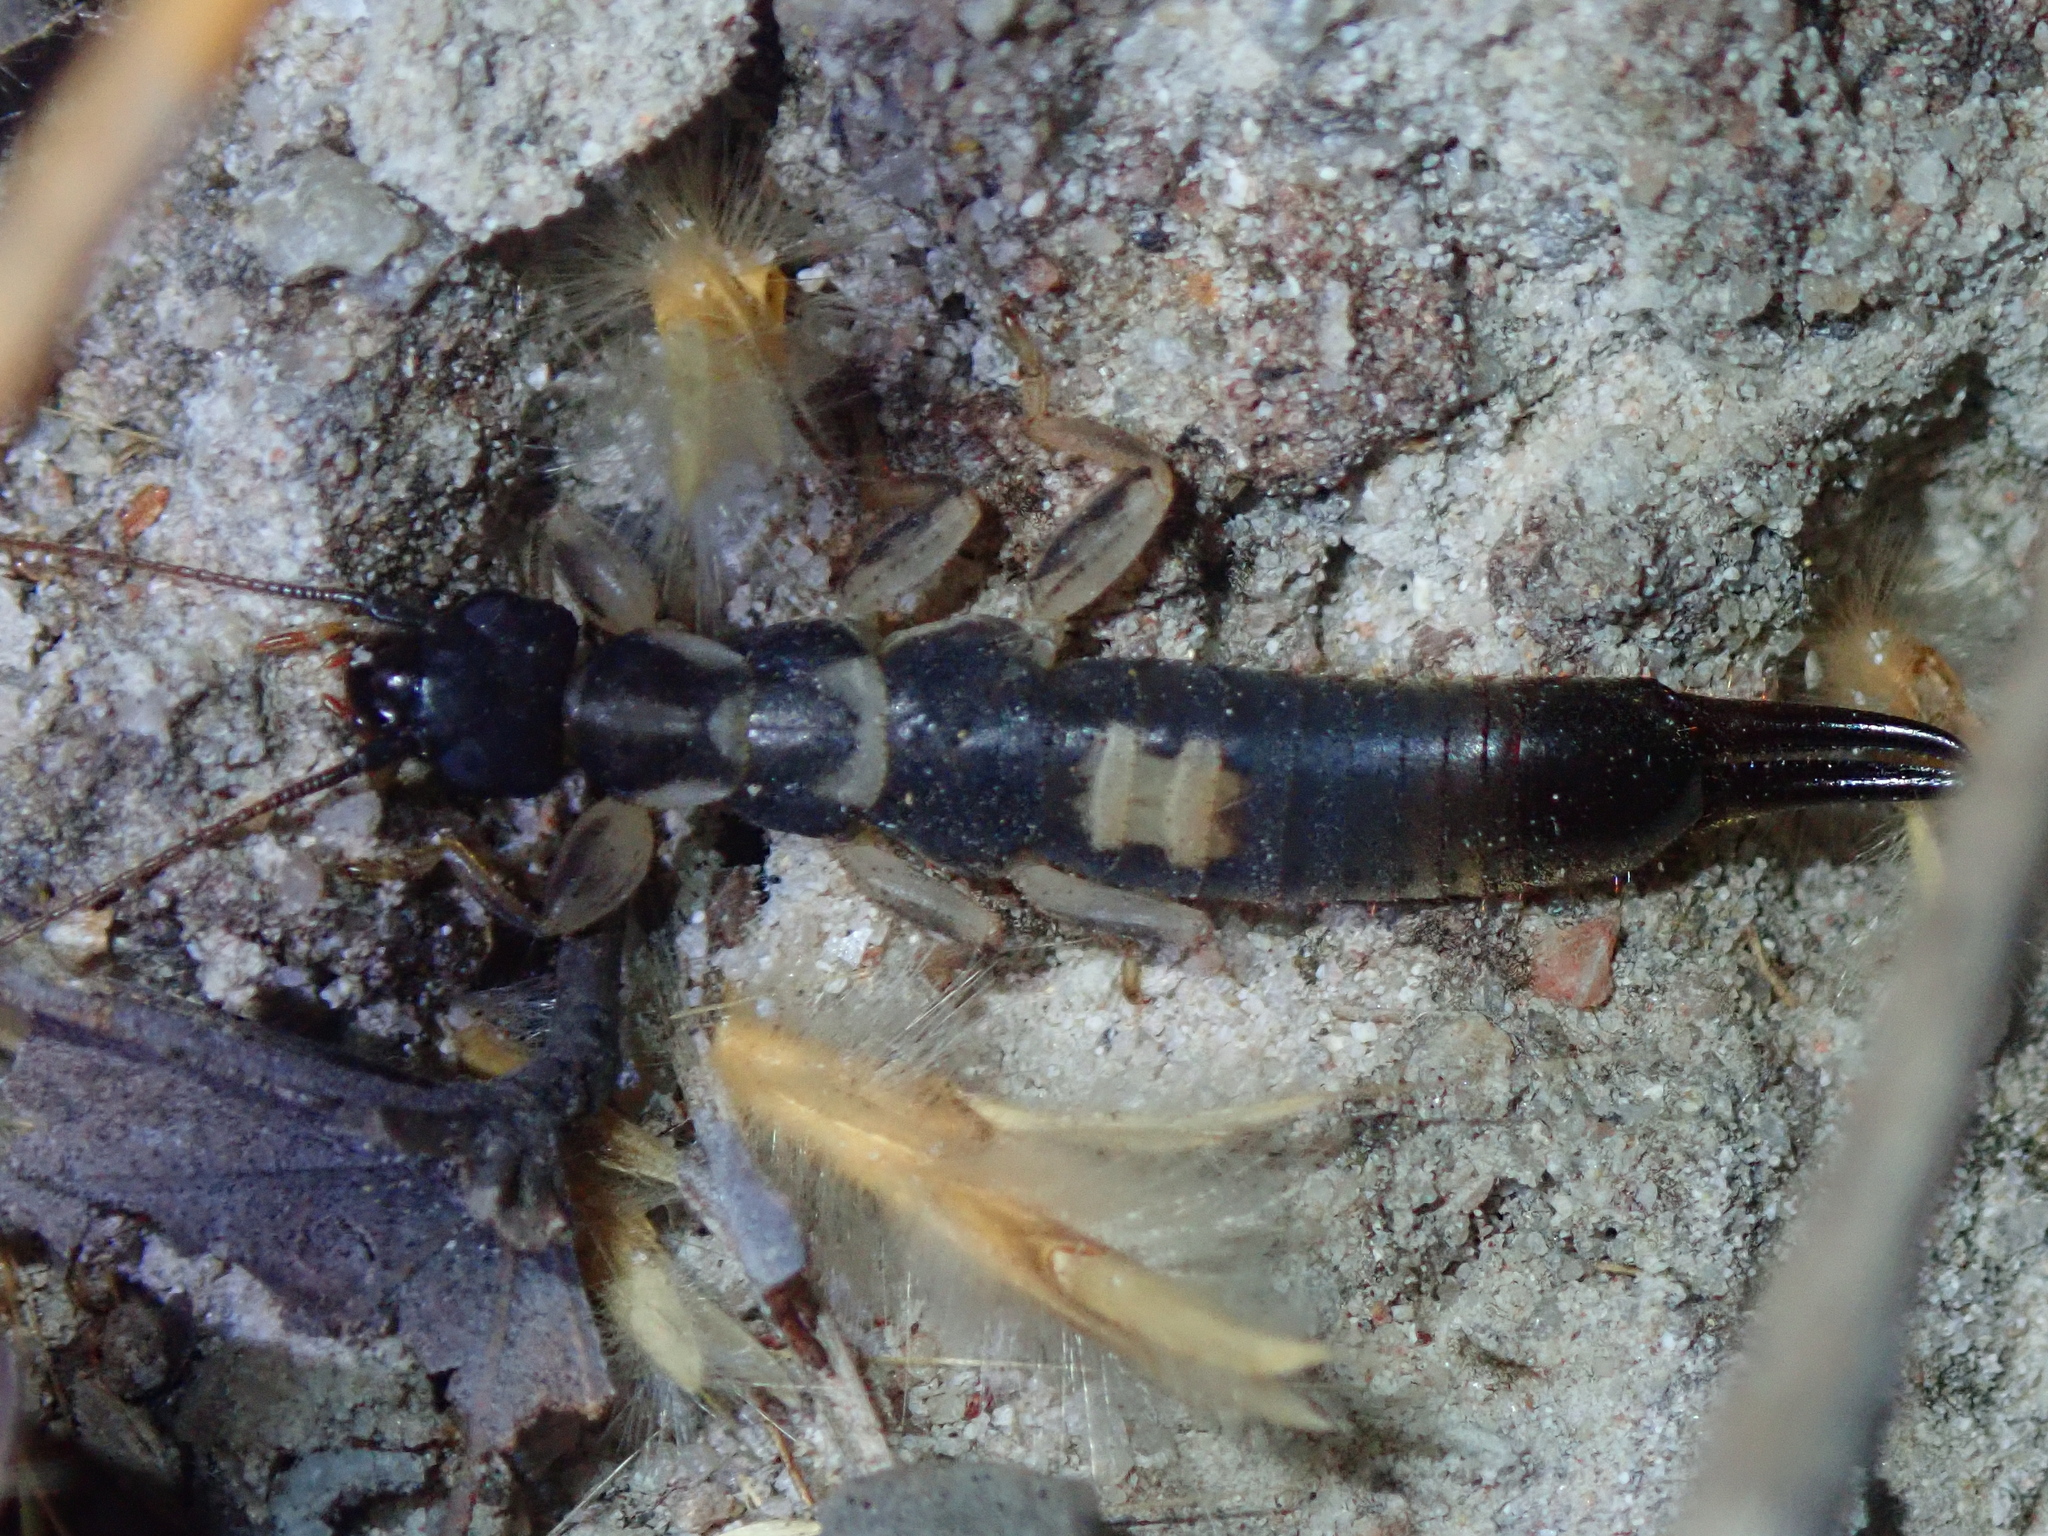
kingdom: Animalia
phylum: Arthropoda
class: Insecta
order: Dermaptera
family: Pygidicranidae
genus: Pygidicrana
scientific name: Pygidicrana forcipata
